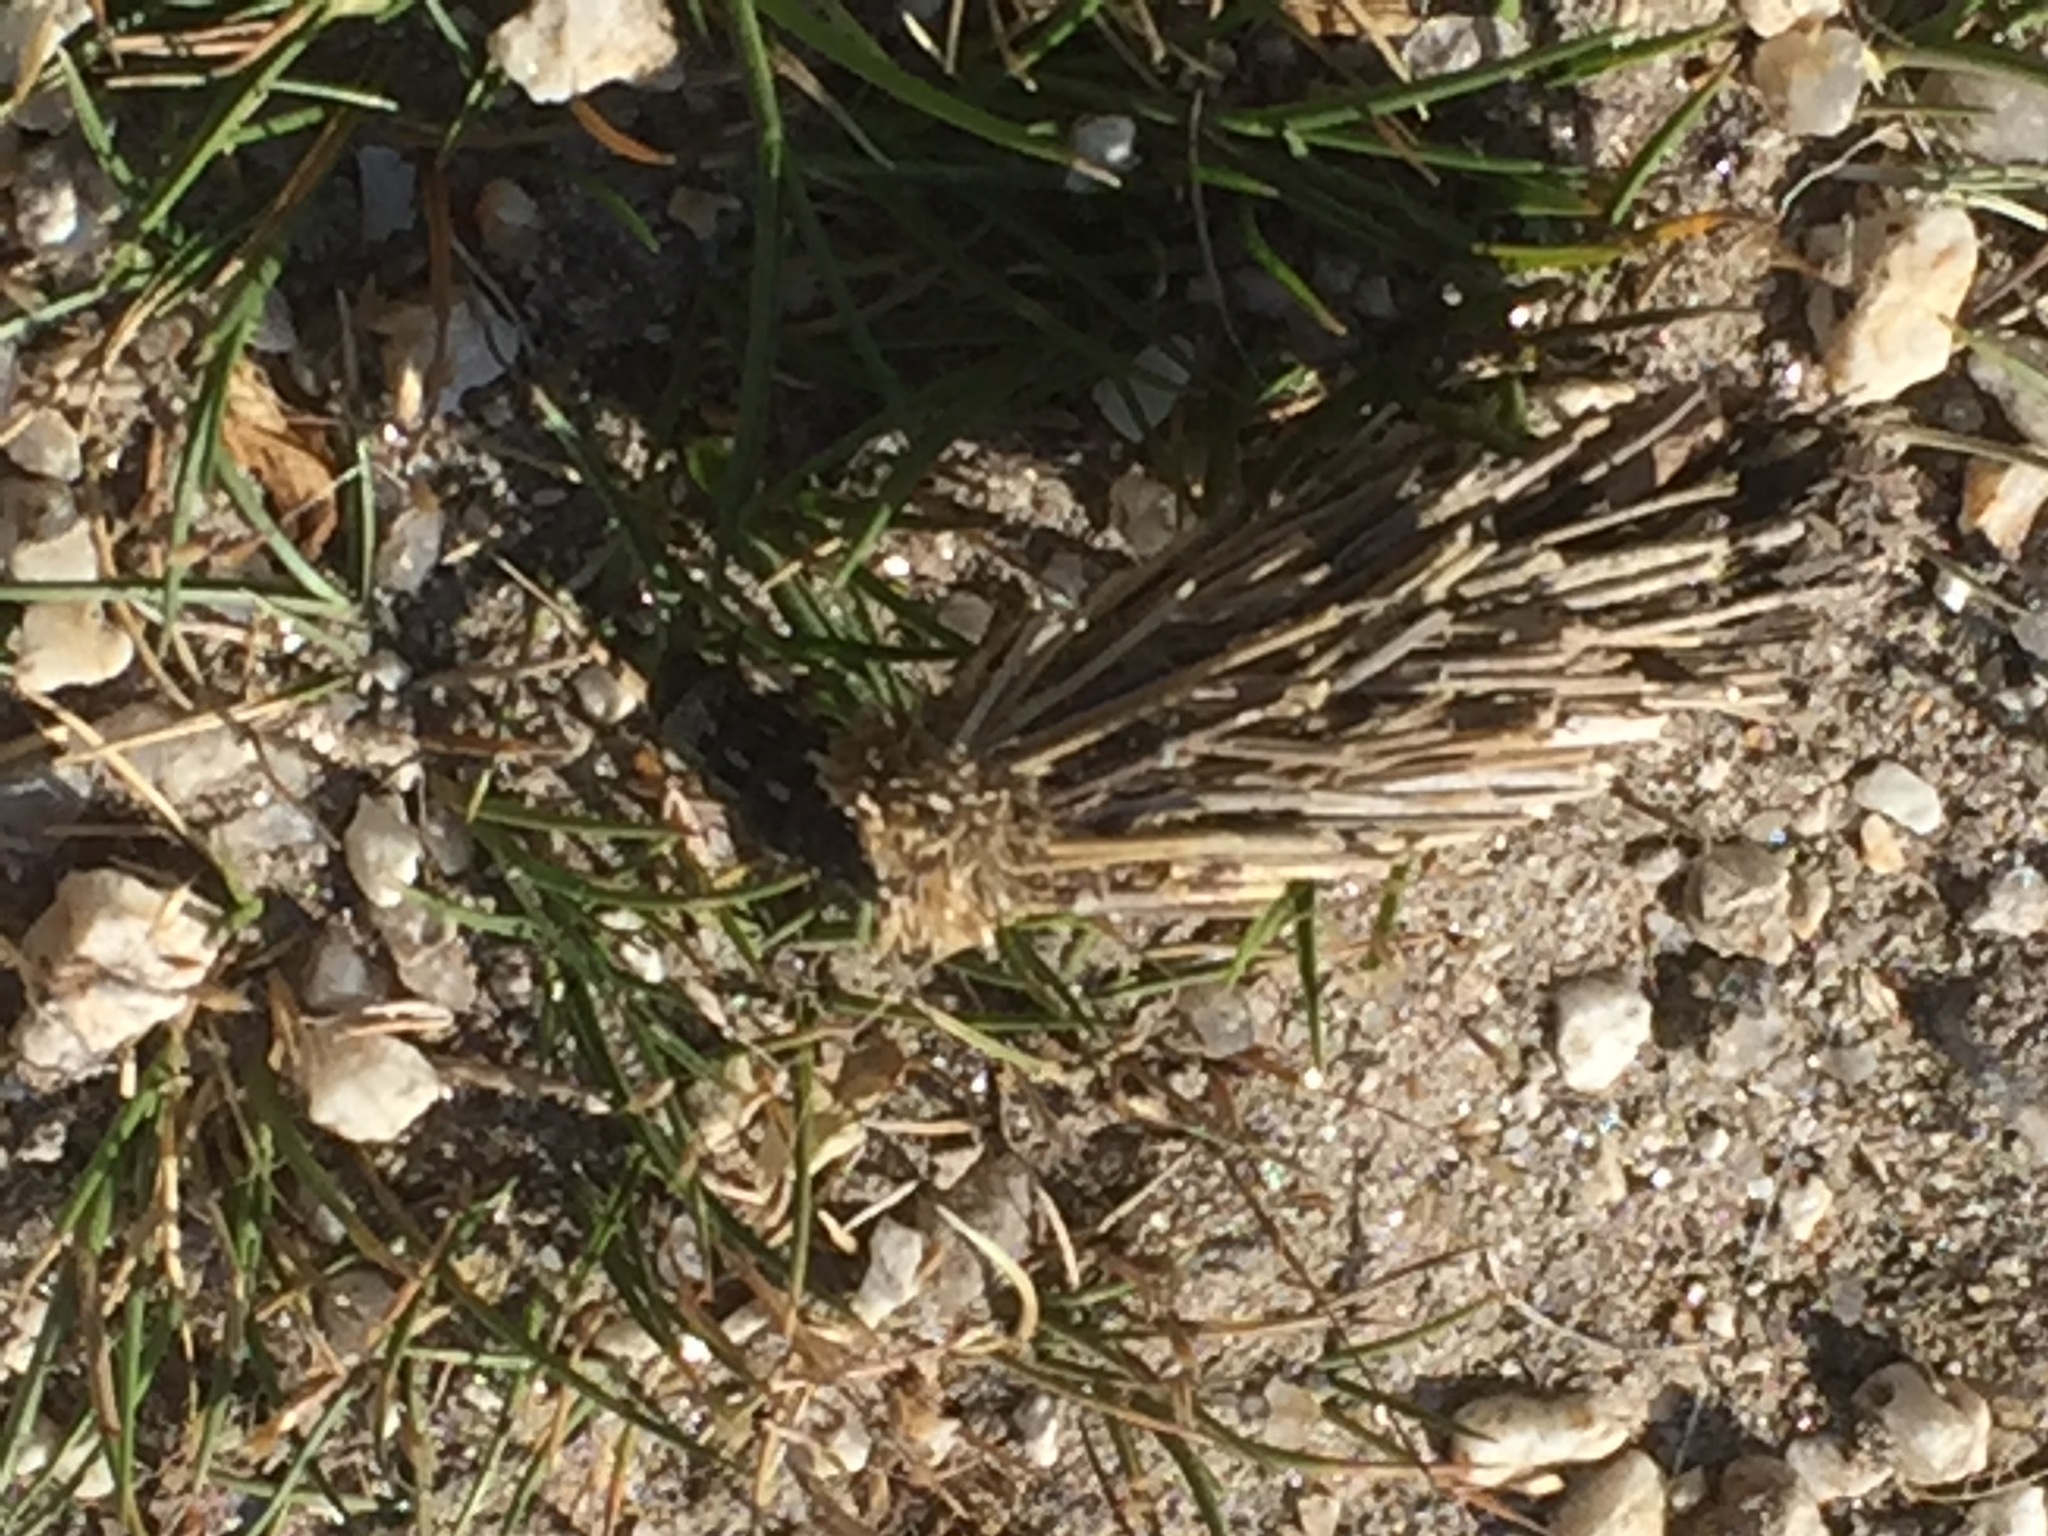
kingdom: Animalia
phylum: Arthropoda
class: Insecta
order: Lepidoptera
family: Psychidae
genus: Oiketicoides
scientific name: Oiketicoides febretta
